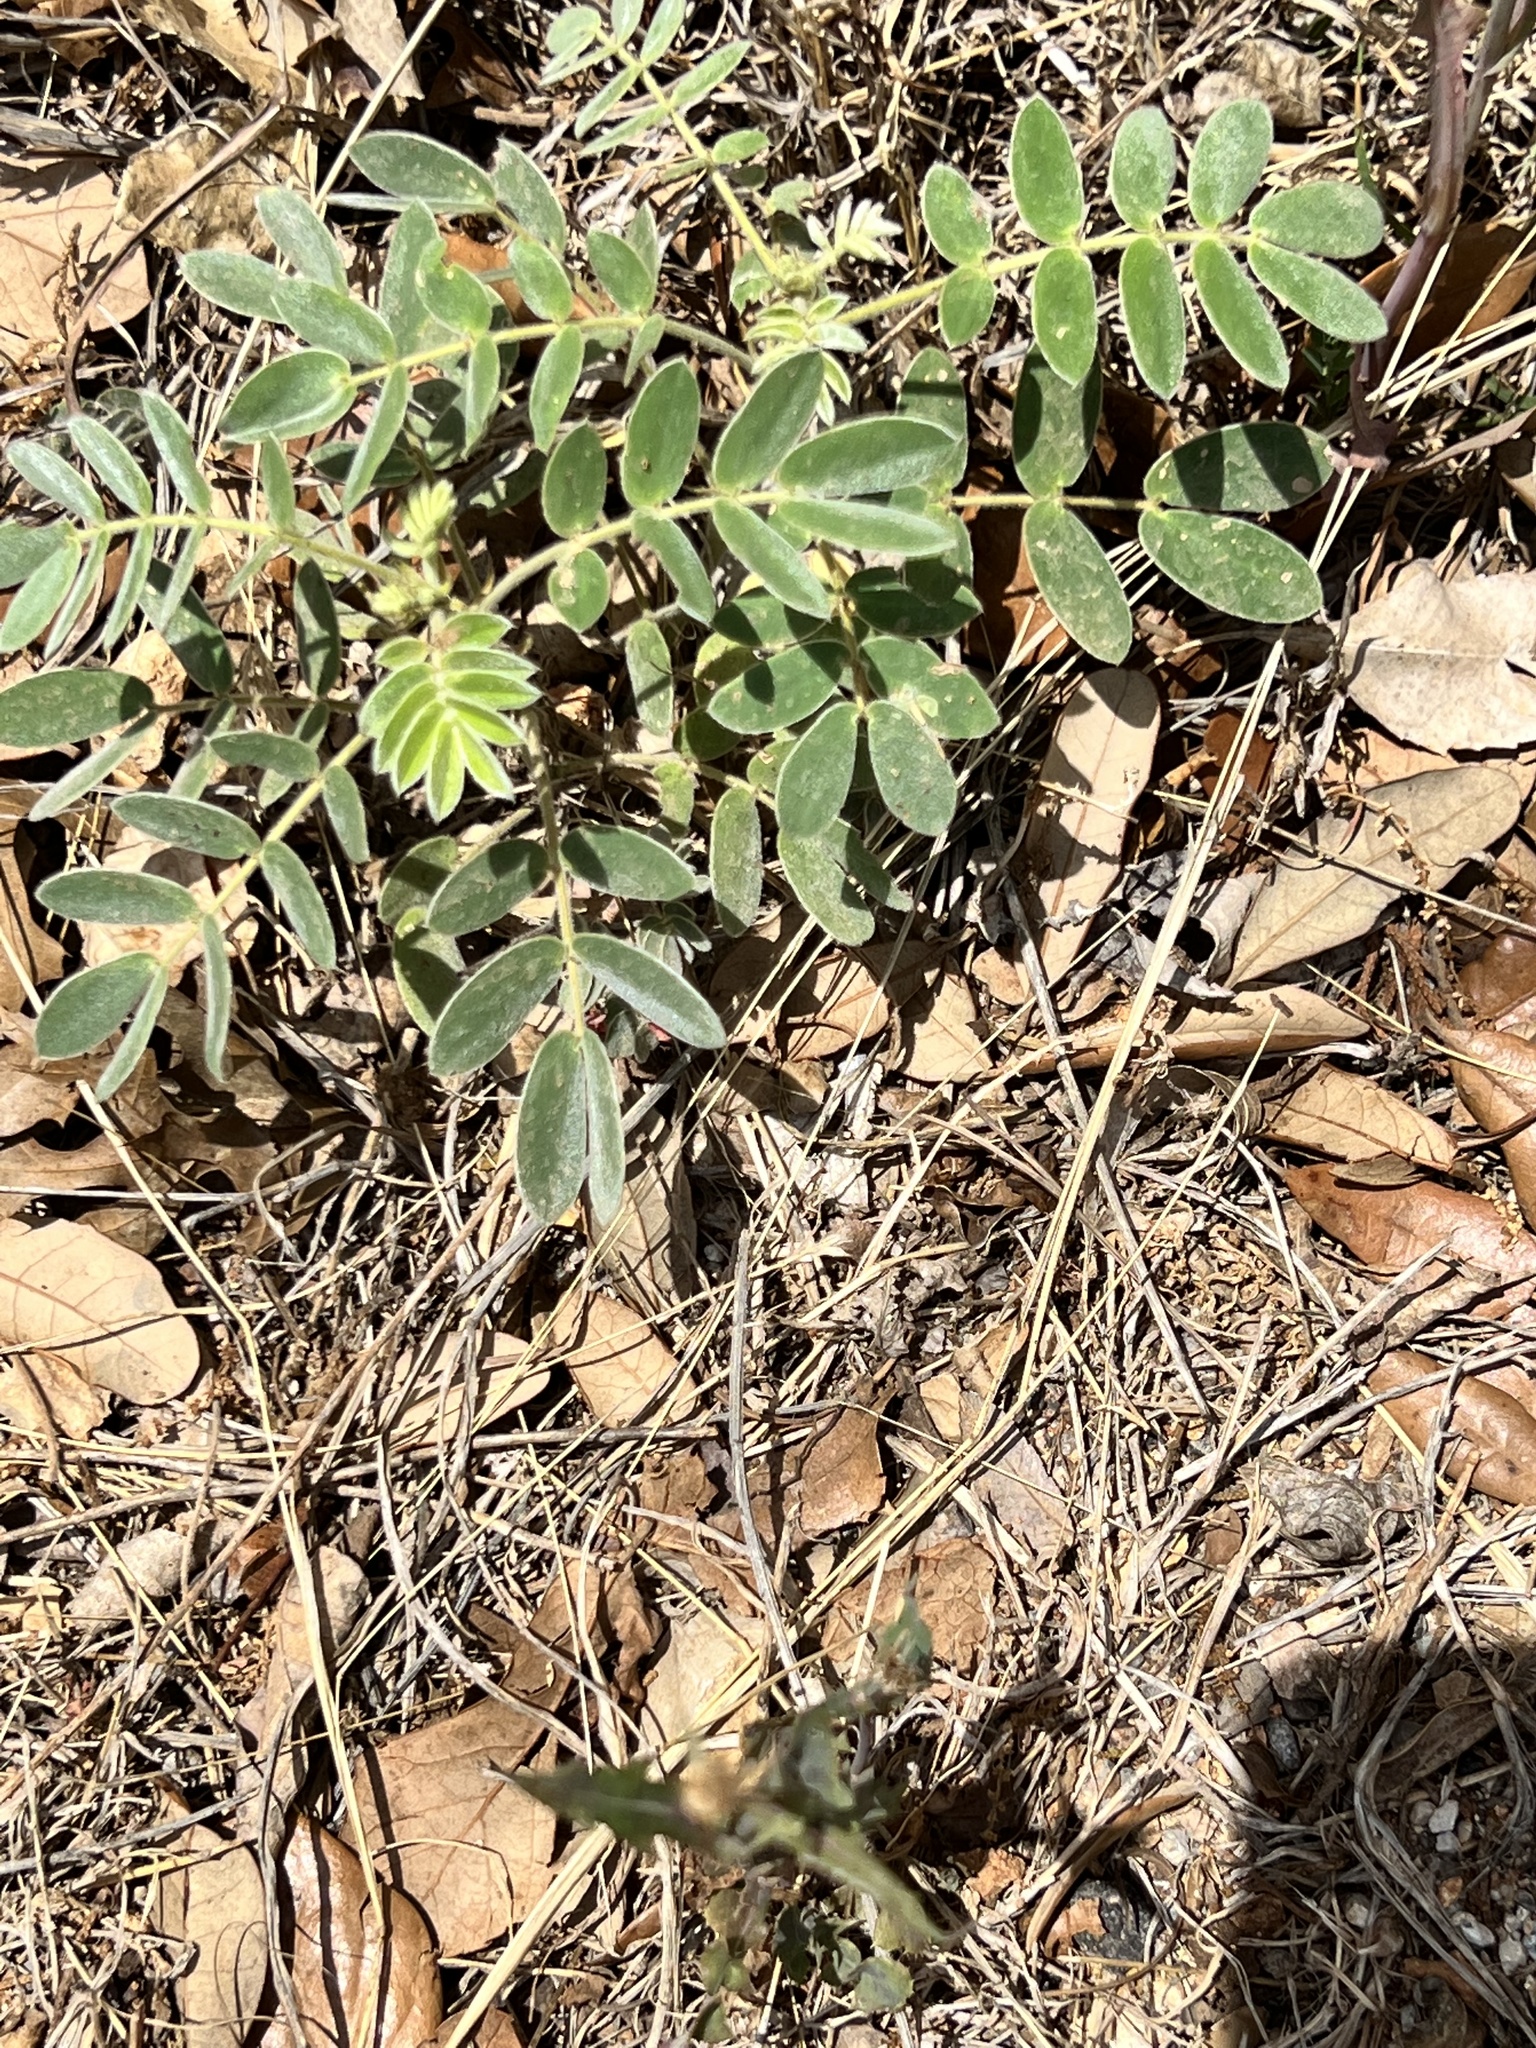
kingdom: Plantae
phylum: Tracheophyta
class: Magnoliopsida
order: Fabales
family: Fabaceae
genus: Senna
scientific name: Senna lindheimeriana
